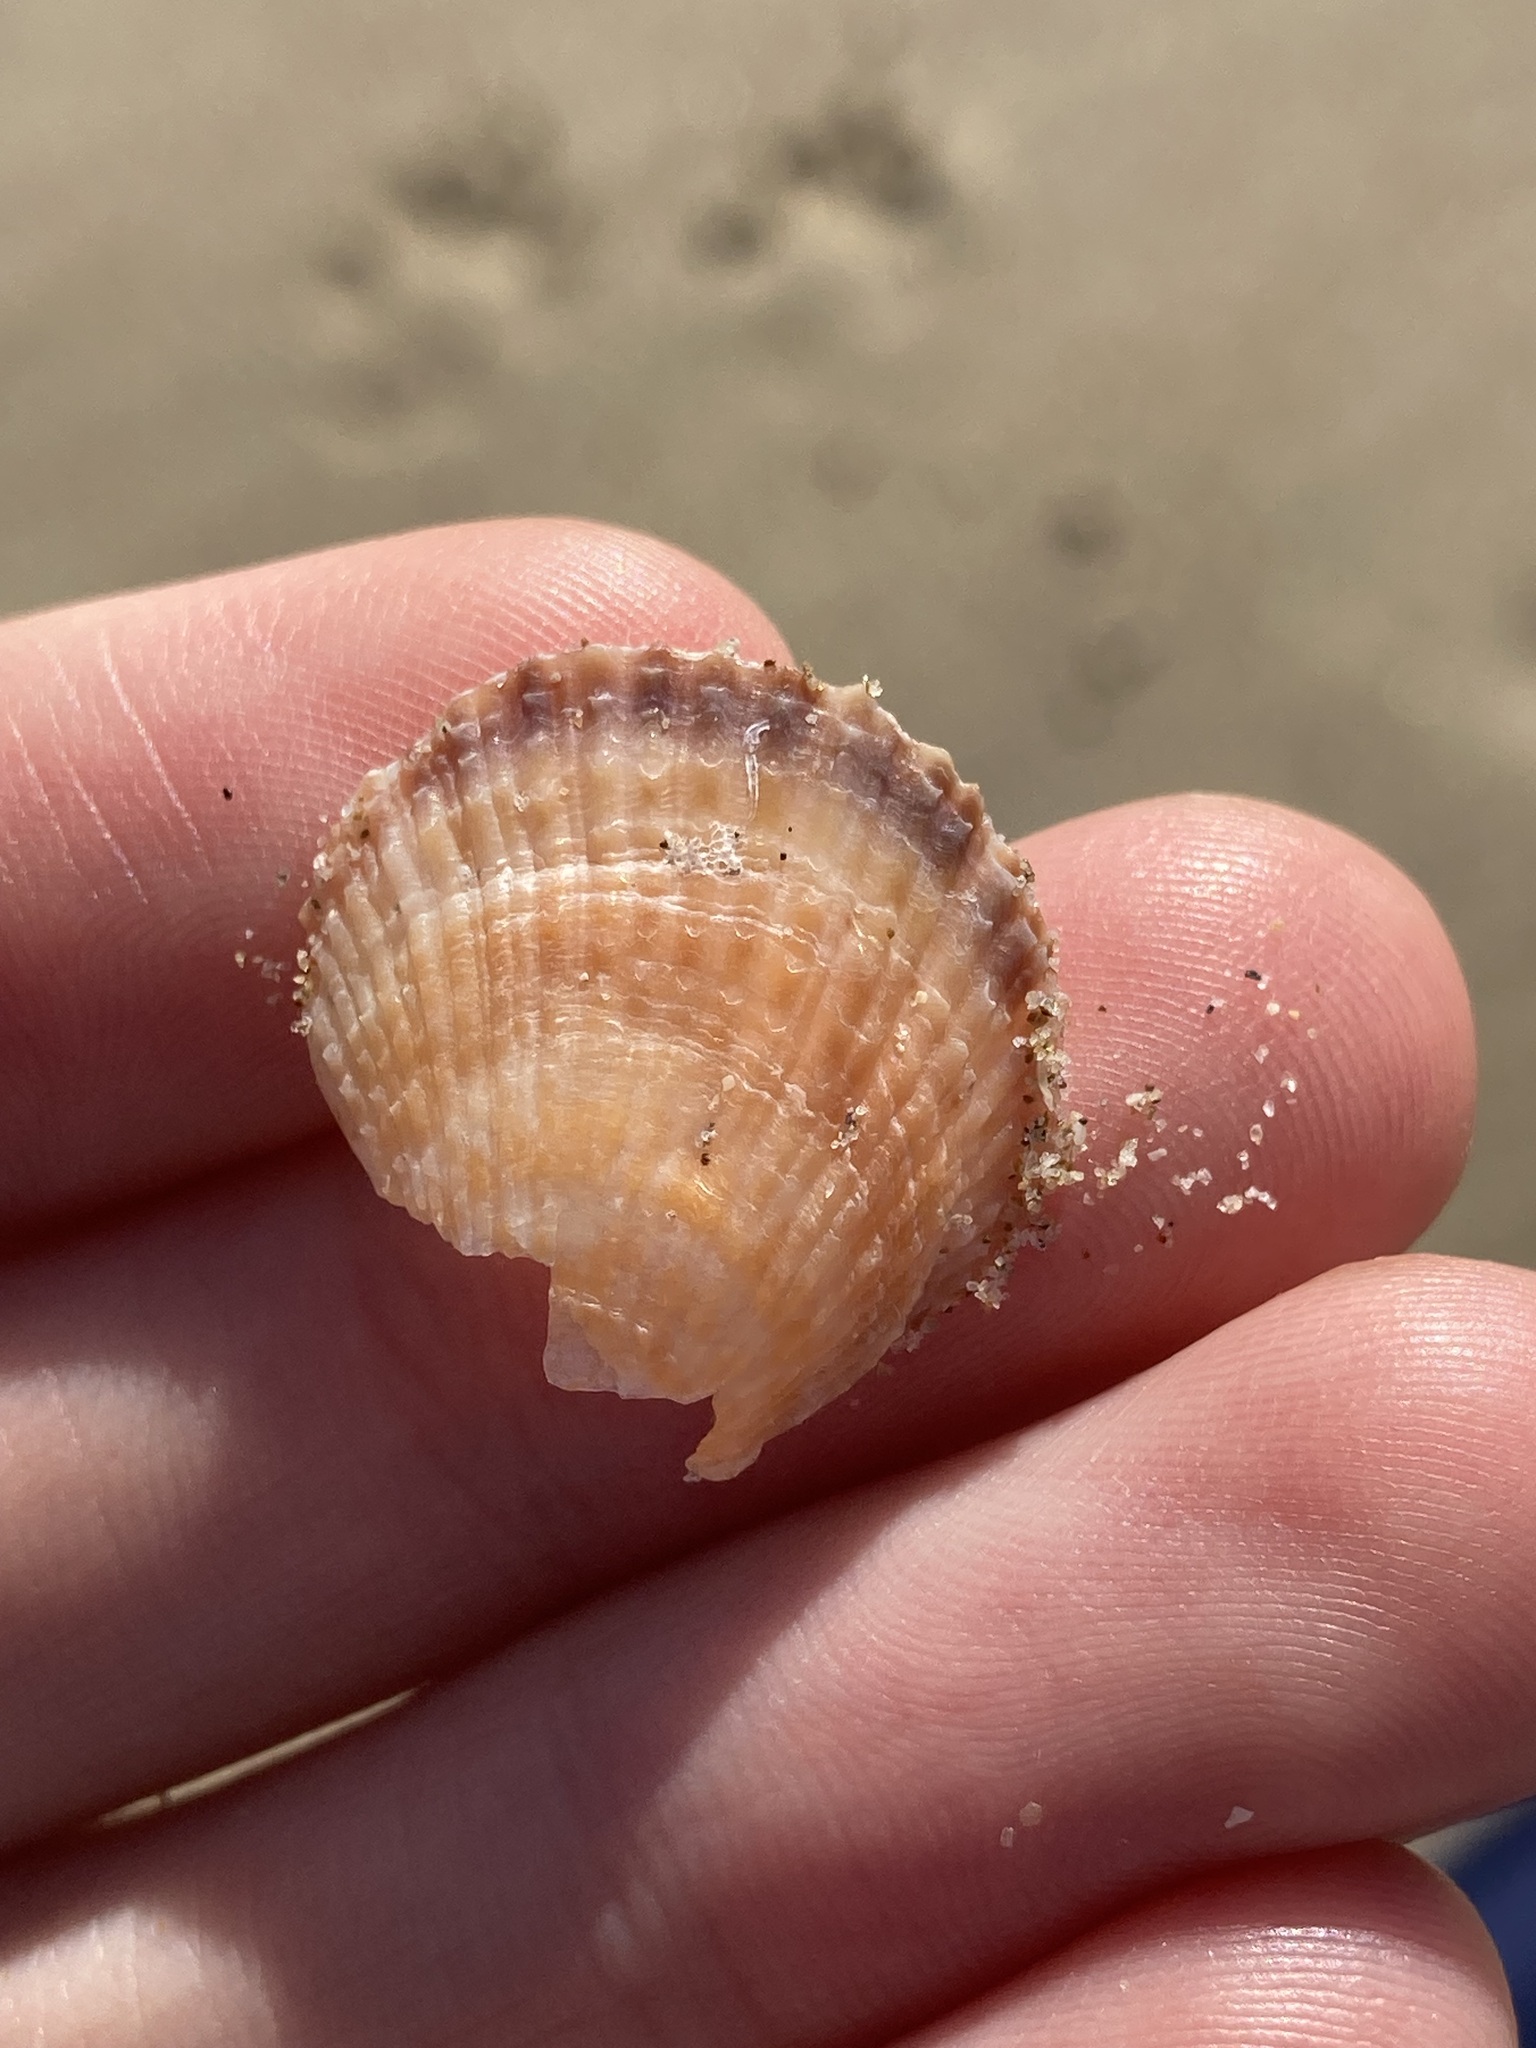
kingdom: Animalia
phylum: Mollusca
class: Bivalvia
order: Pectinida
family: Pectinidae
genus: Scaeochlamys
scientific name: Scaeochlamys livida
